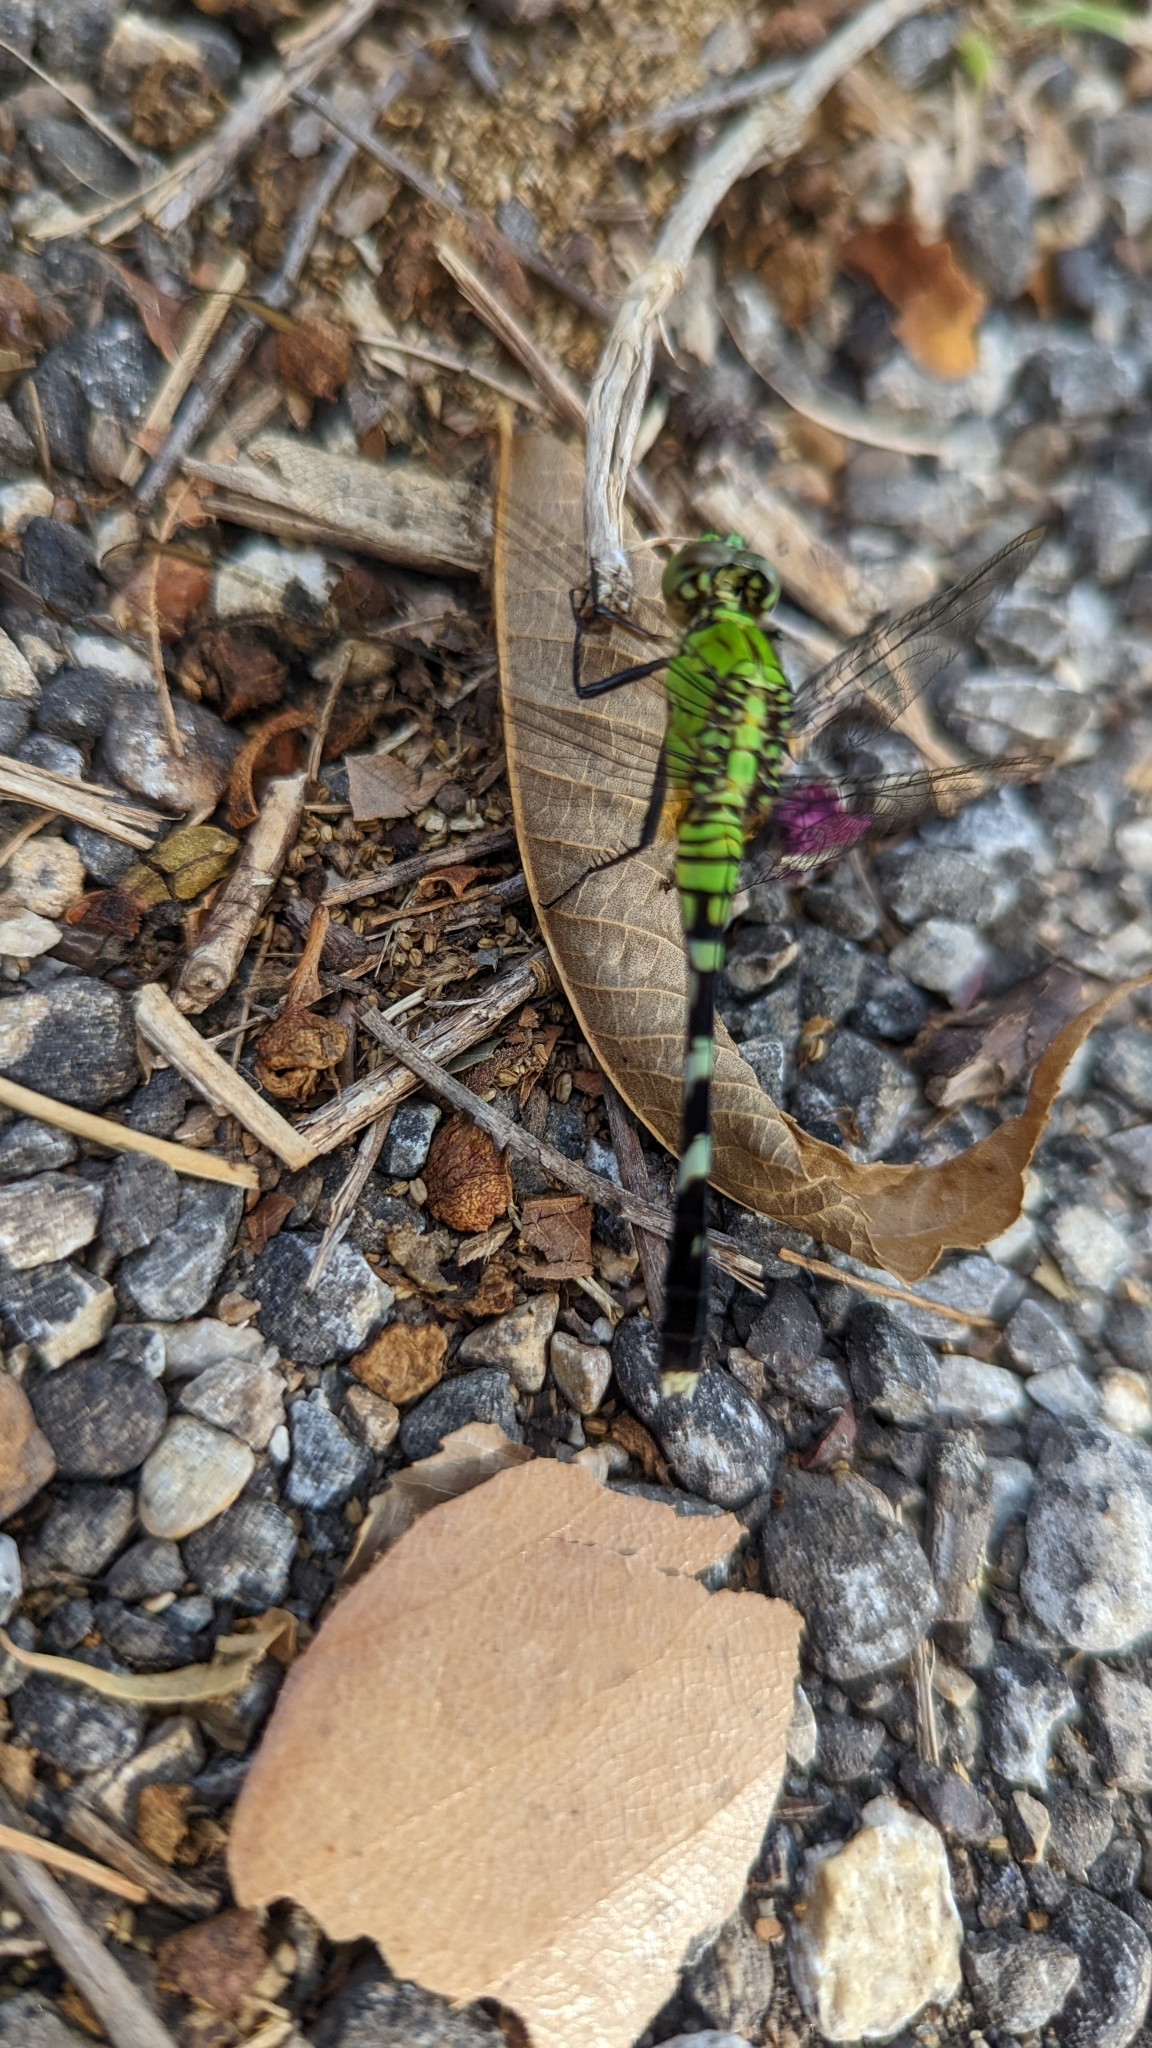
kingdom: Animalia
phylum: Arthropoda
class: Insecta
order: Odonata
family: Libellulidae
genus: Erythemis
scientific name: Erythemis simplicicollis
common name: Eastern pondhawk
